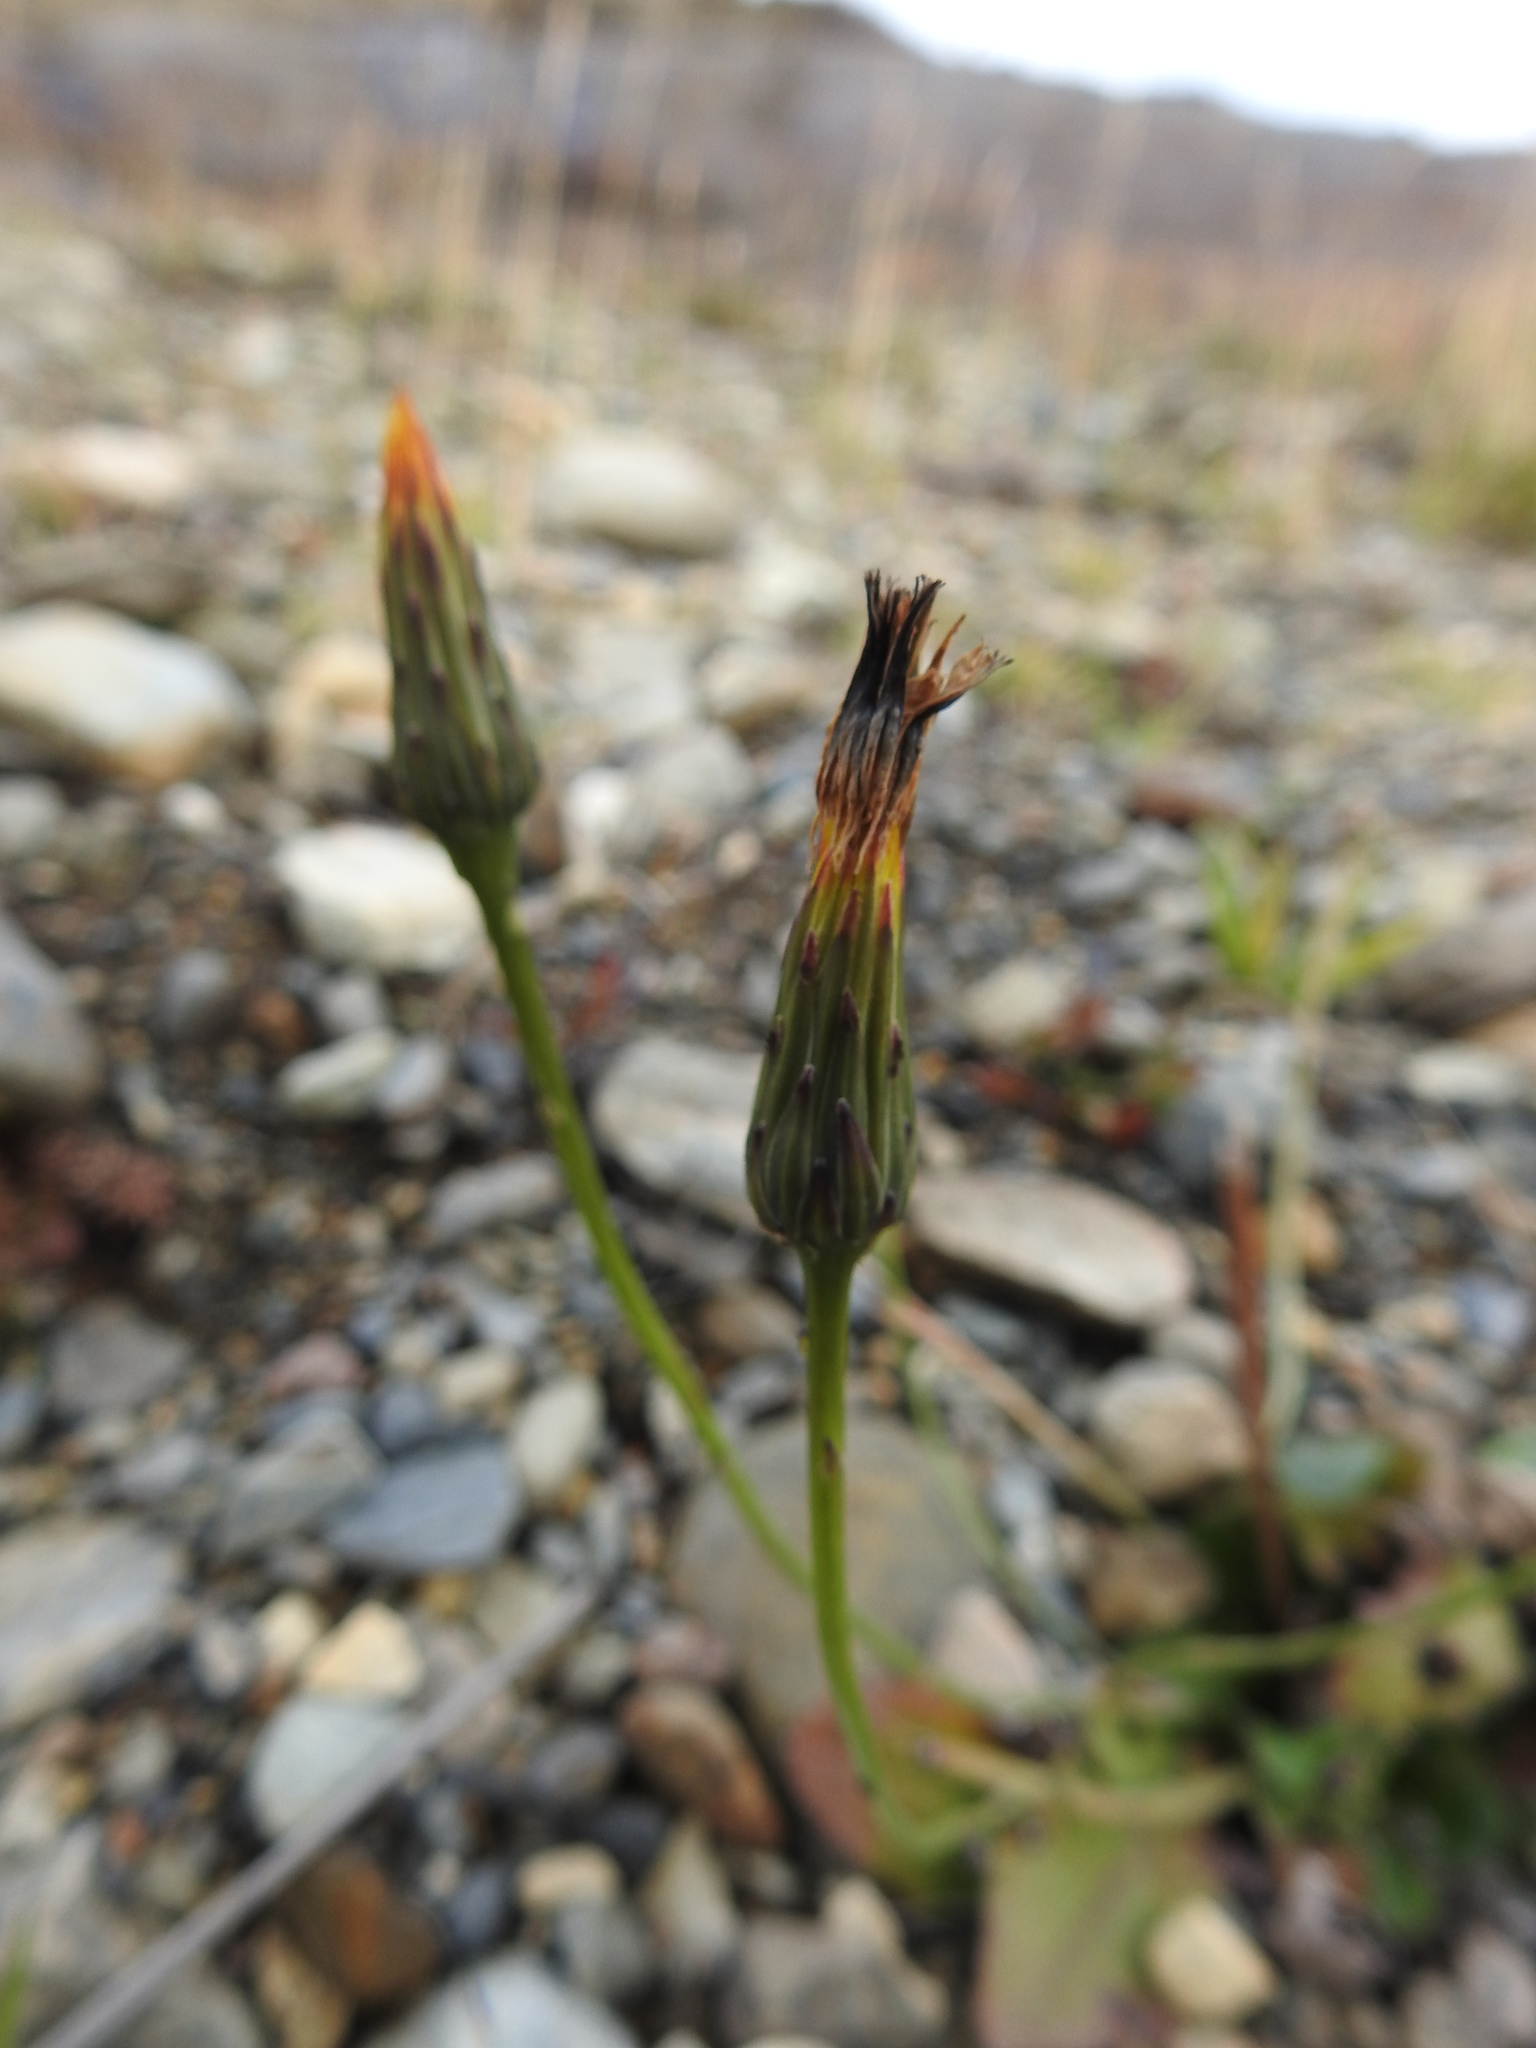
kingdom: Plantae
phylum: Tracheophyta
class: Magnoliopsida
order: Asterales
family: Asteraceae
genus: Hypochaeris
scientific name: Hypochaeris radicata
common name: Flatweed
